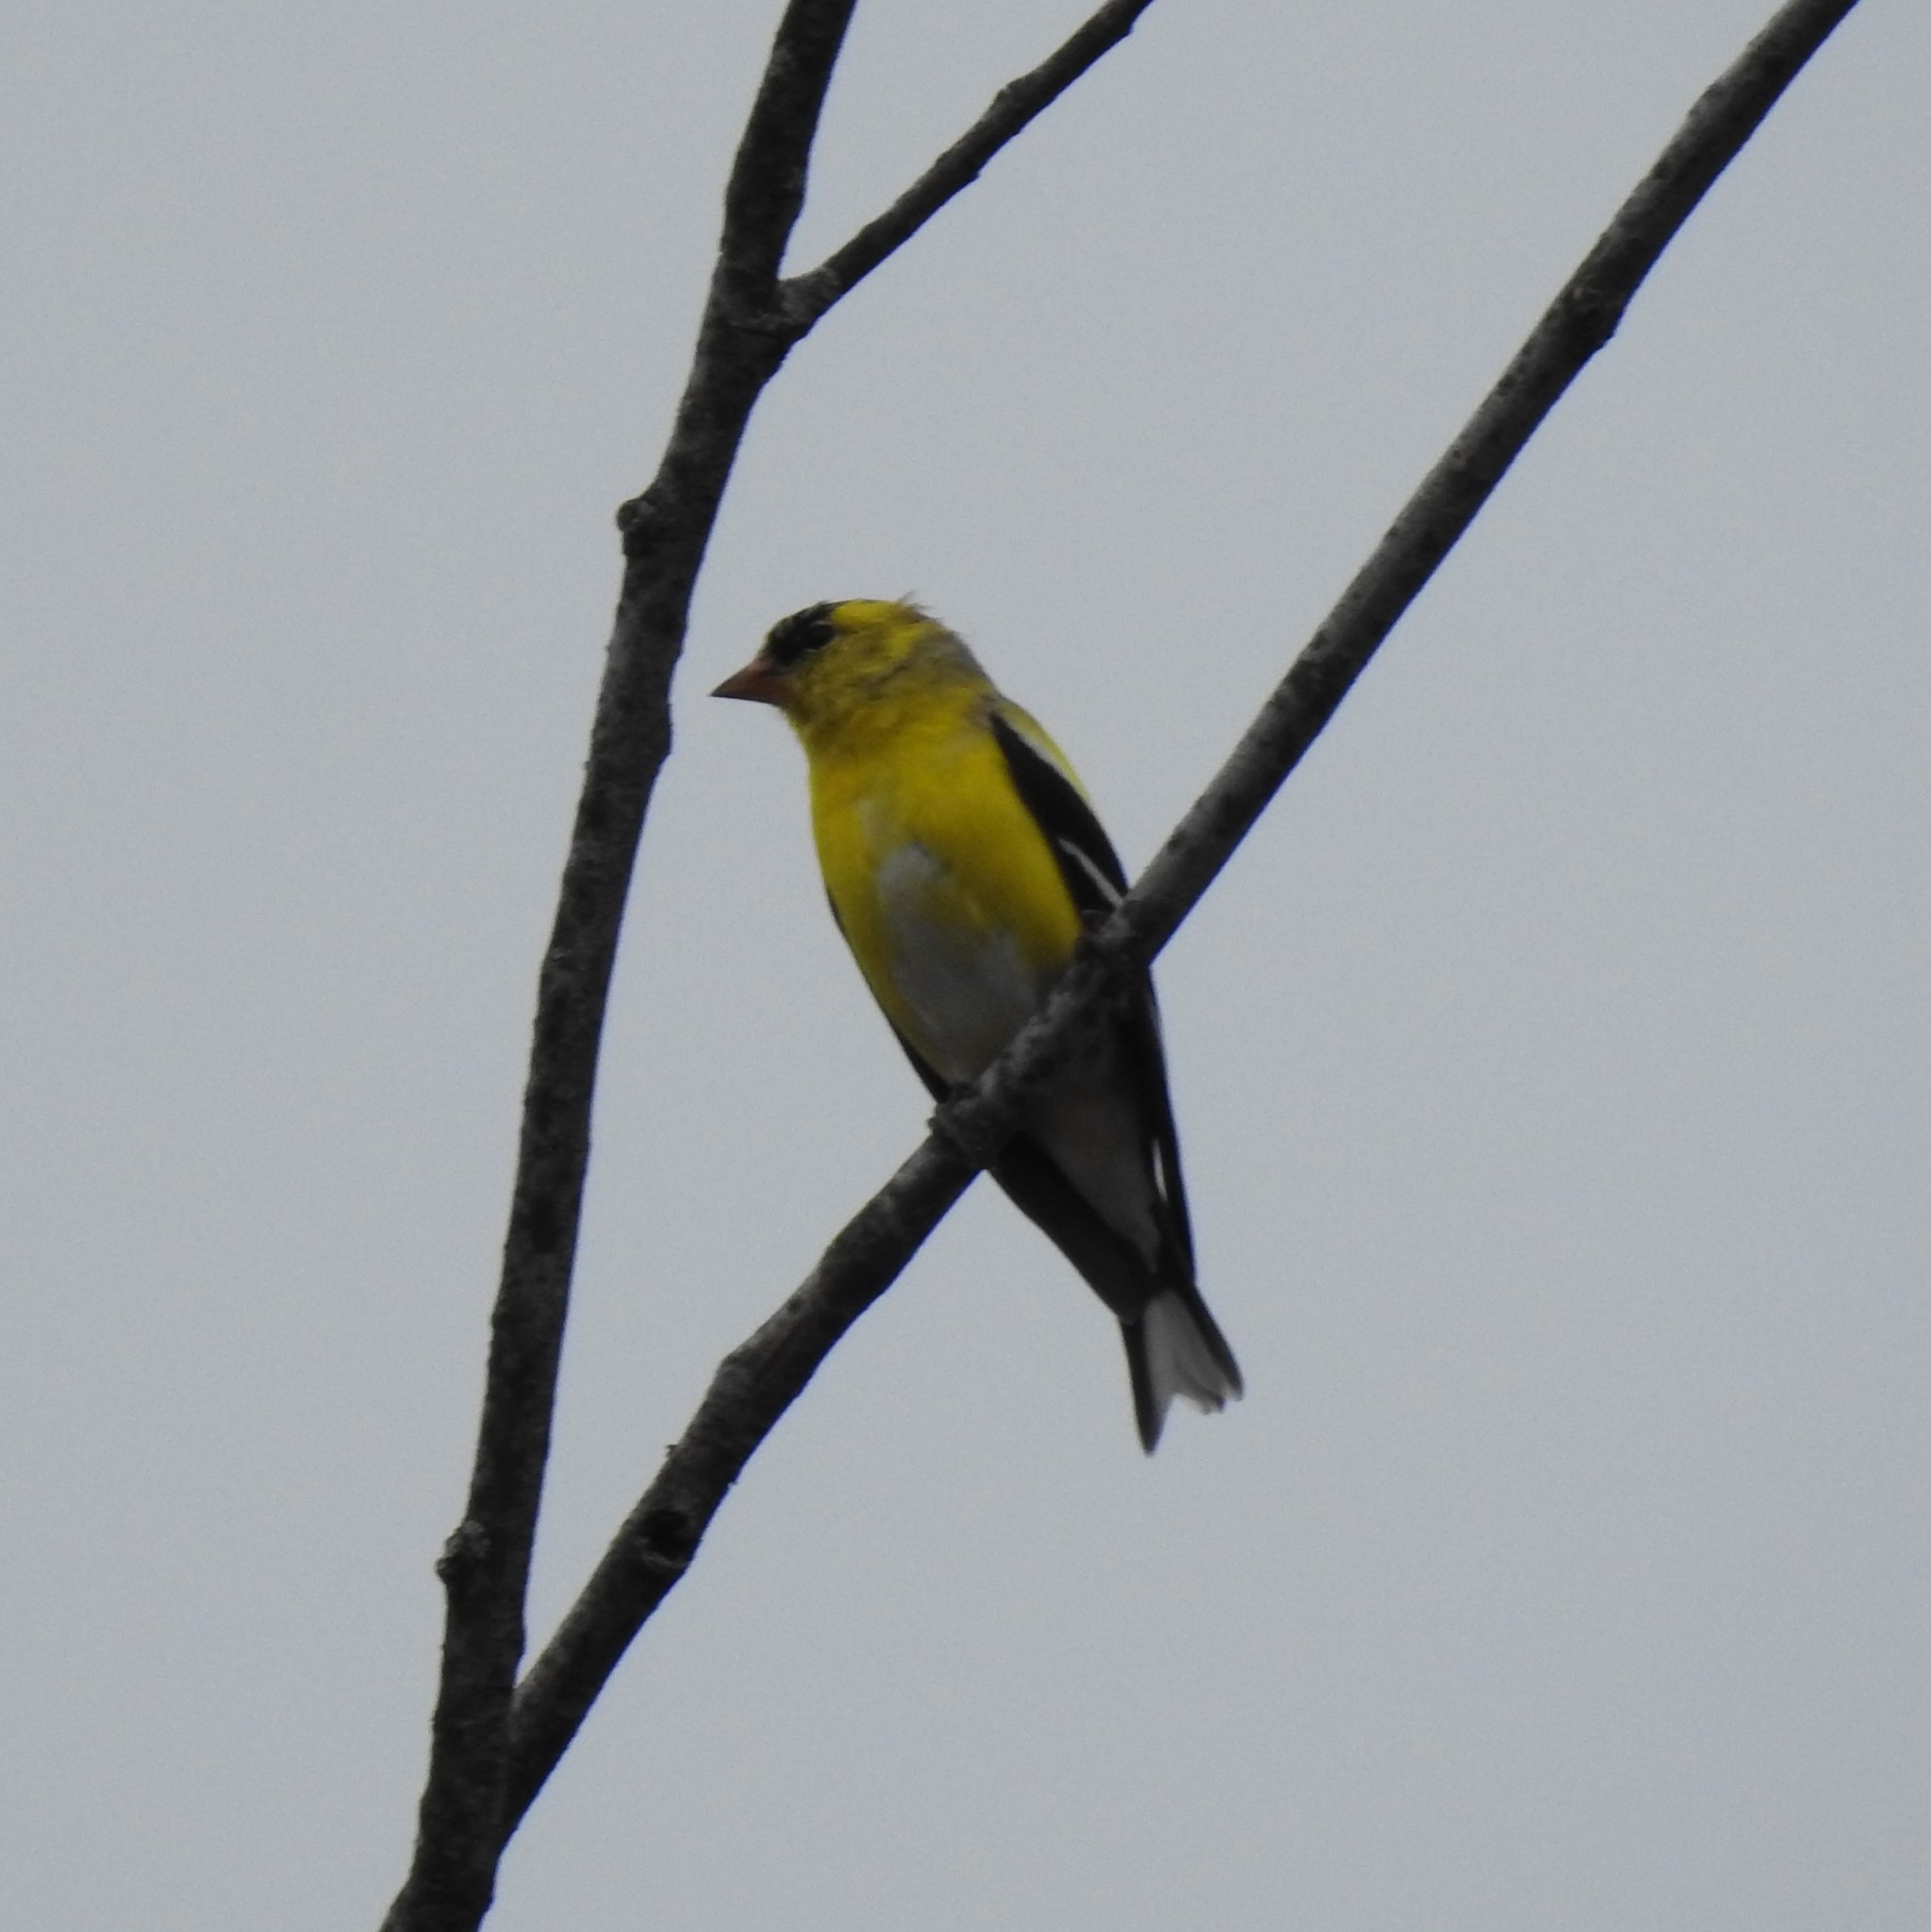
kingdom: Animalia
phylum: Chordata
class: Aves
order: Passeriformes
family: Fringillidae
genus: Spinus
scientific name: Spinus tristis
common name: American goldfinch
